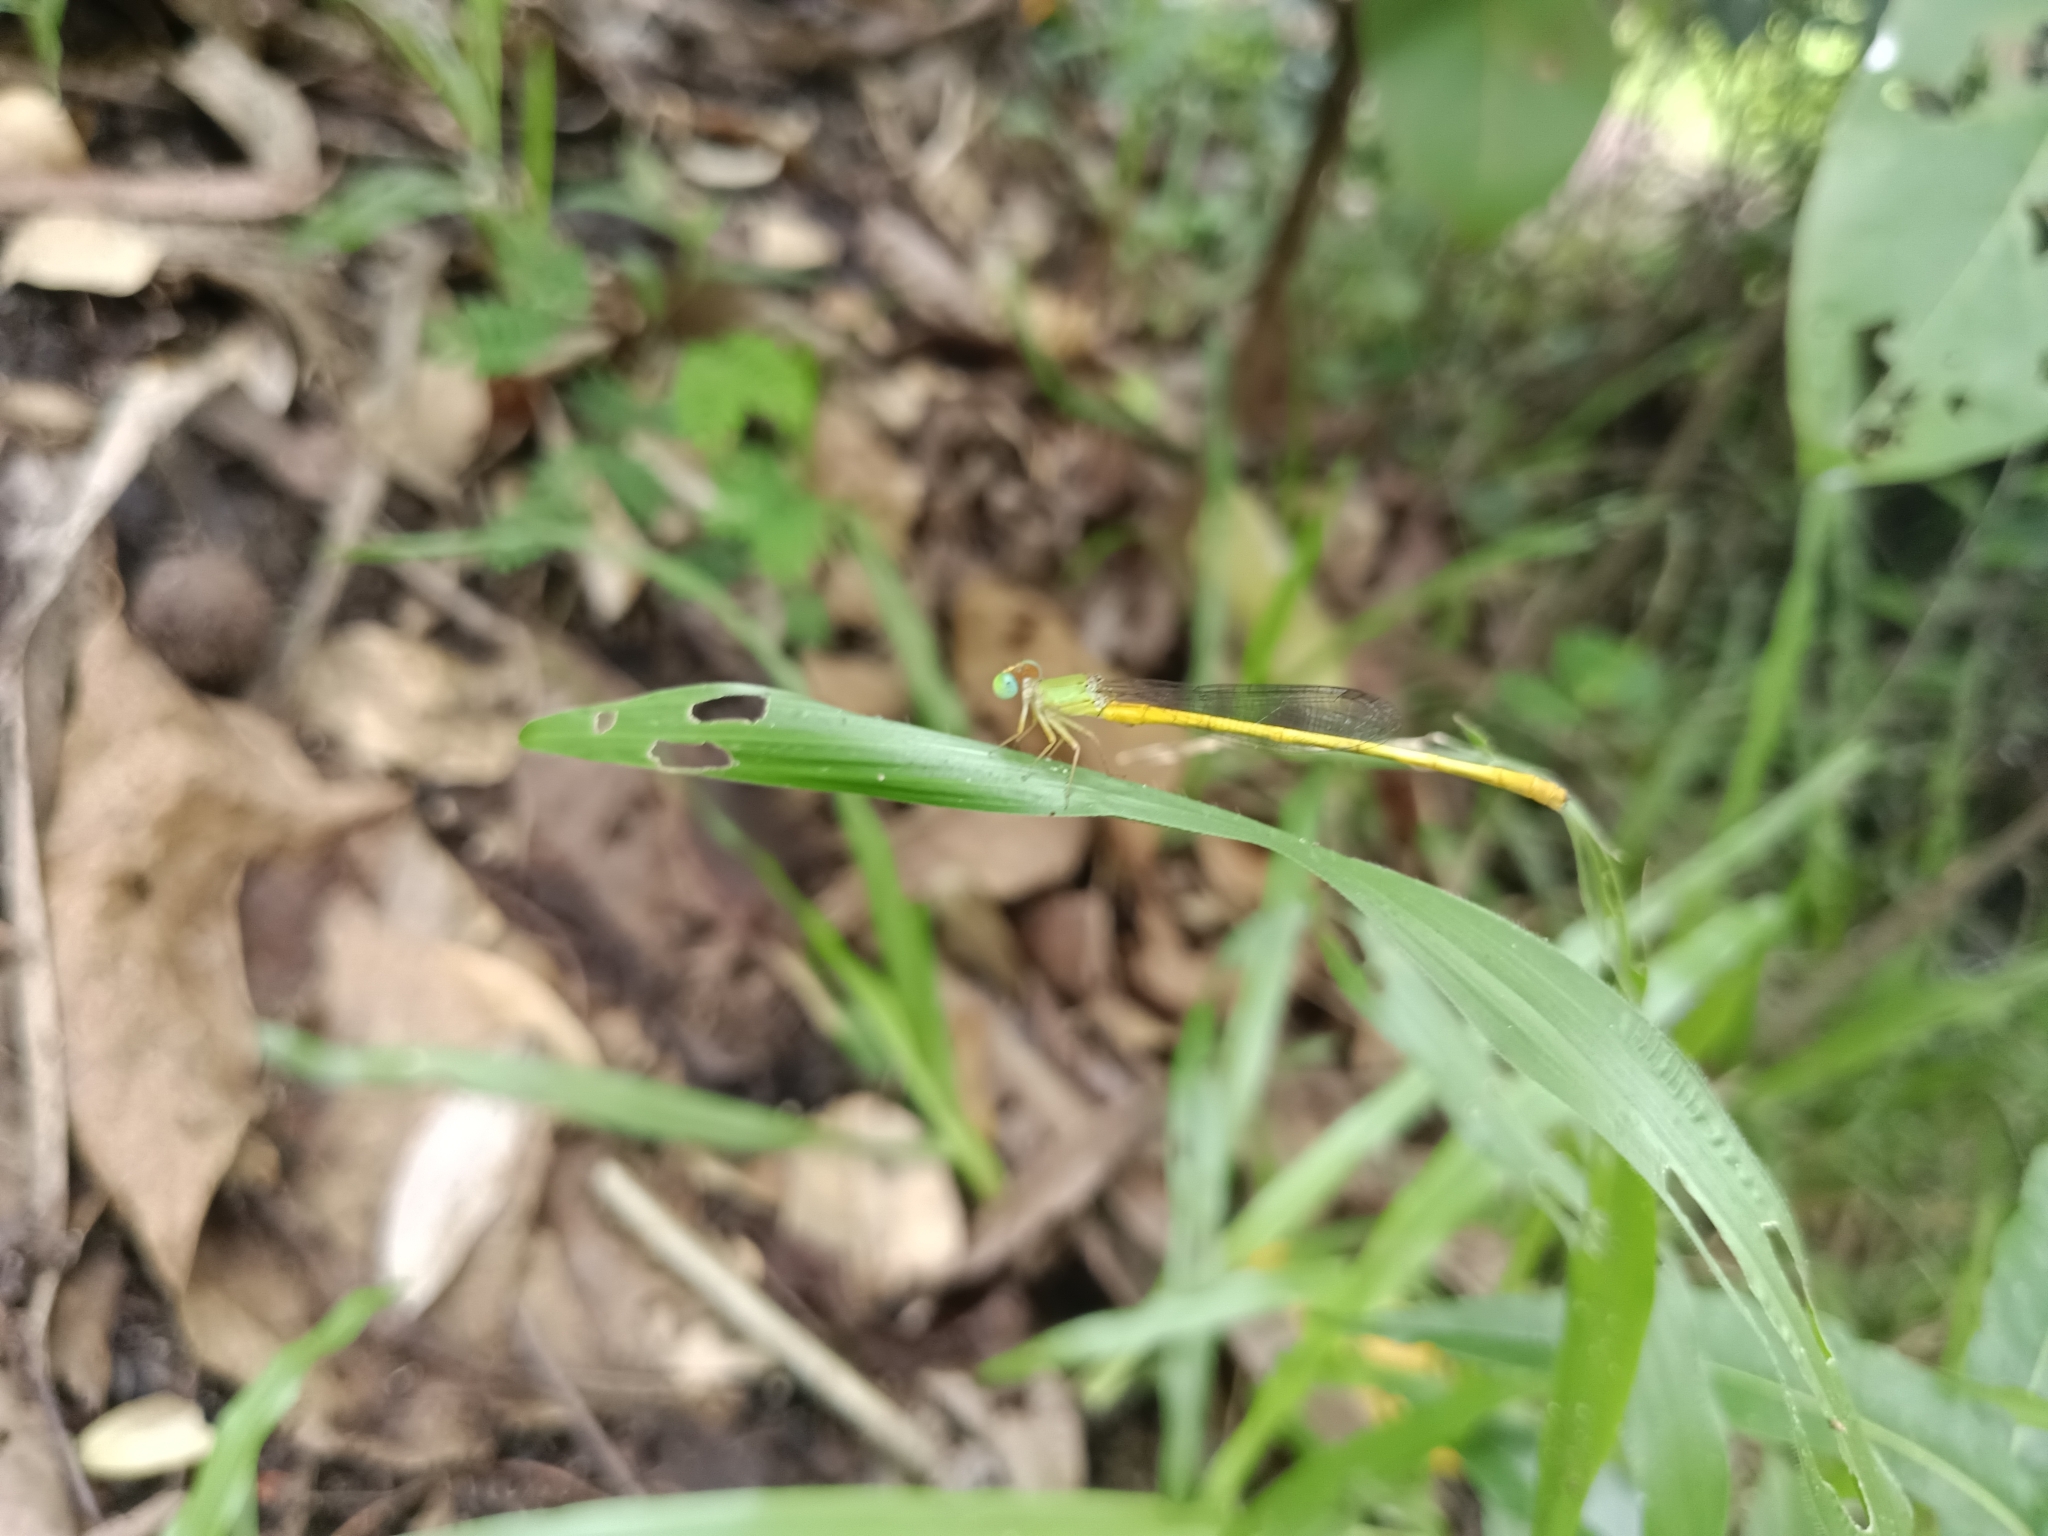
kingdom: Animalia
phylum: Arthropoda
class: Insecta
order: Odonata
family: Coenagrionidae
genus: Ceriagrion
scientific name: Ceriagrion coromandelianum
